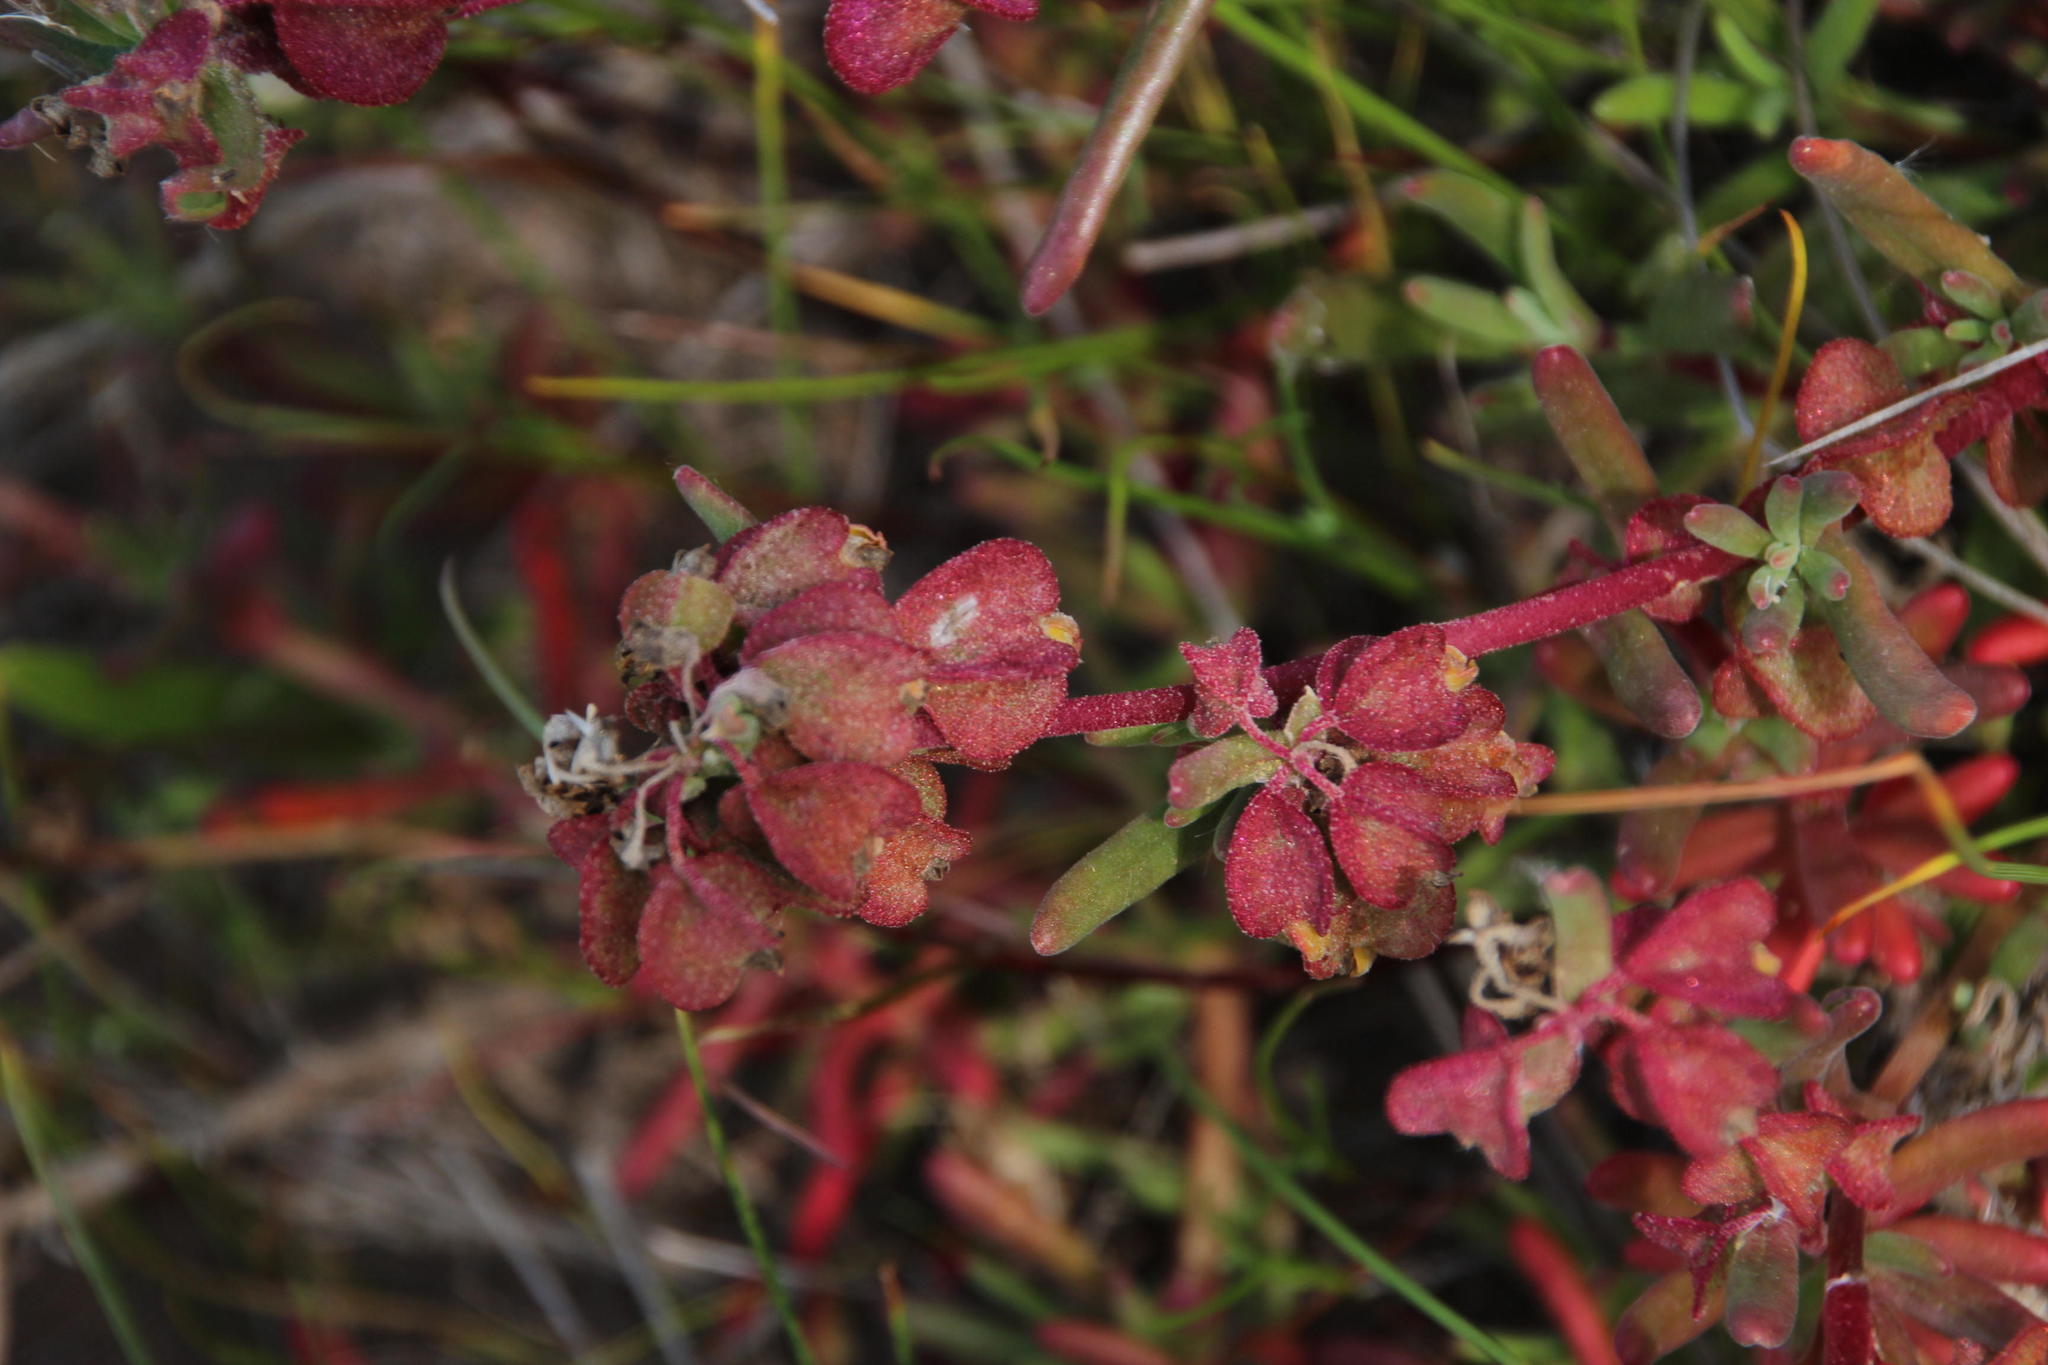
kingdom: Plantae
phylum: Tracheophyta
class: Magnoliopsida
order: Caryophyllales
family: Aizoaceae
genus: Tetragonia
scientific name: Tetragonia fruticosa
